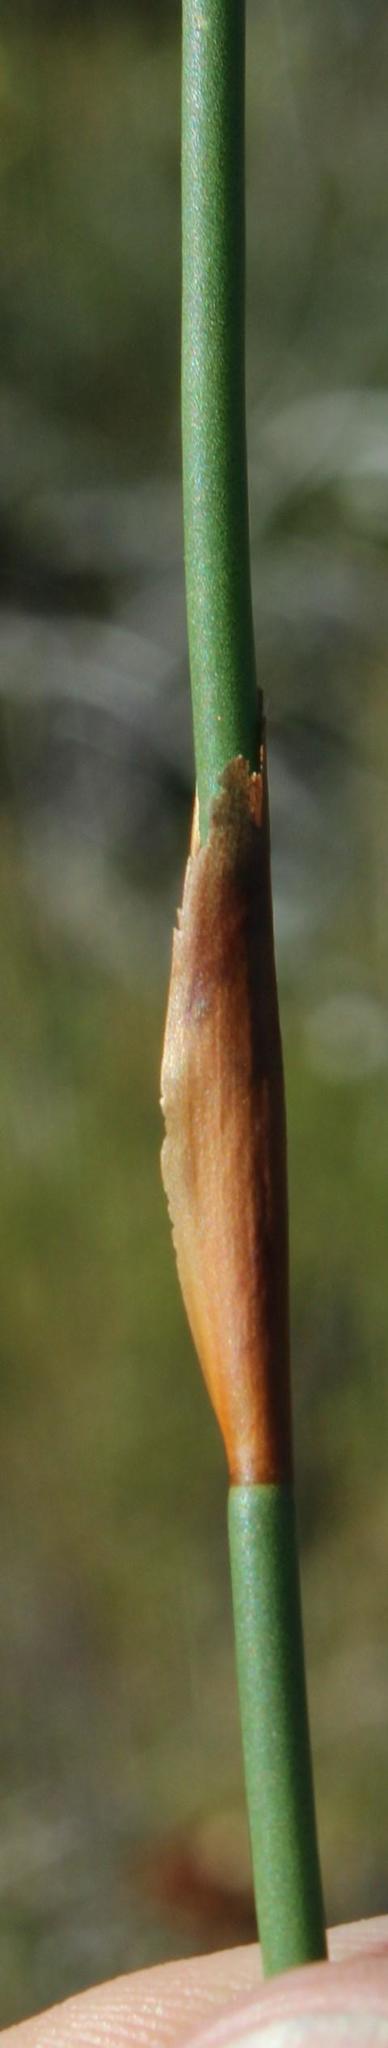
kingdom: Plantae
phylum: Tracheophyta
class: Liliopsida
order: Poales
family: Restionaceae
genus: Elegia
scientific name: Elegia juncea
